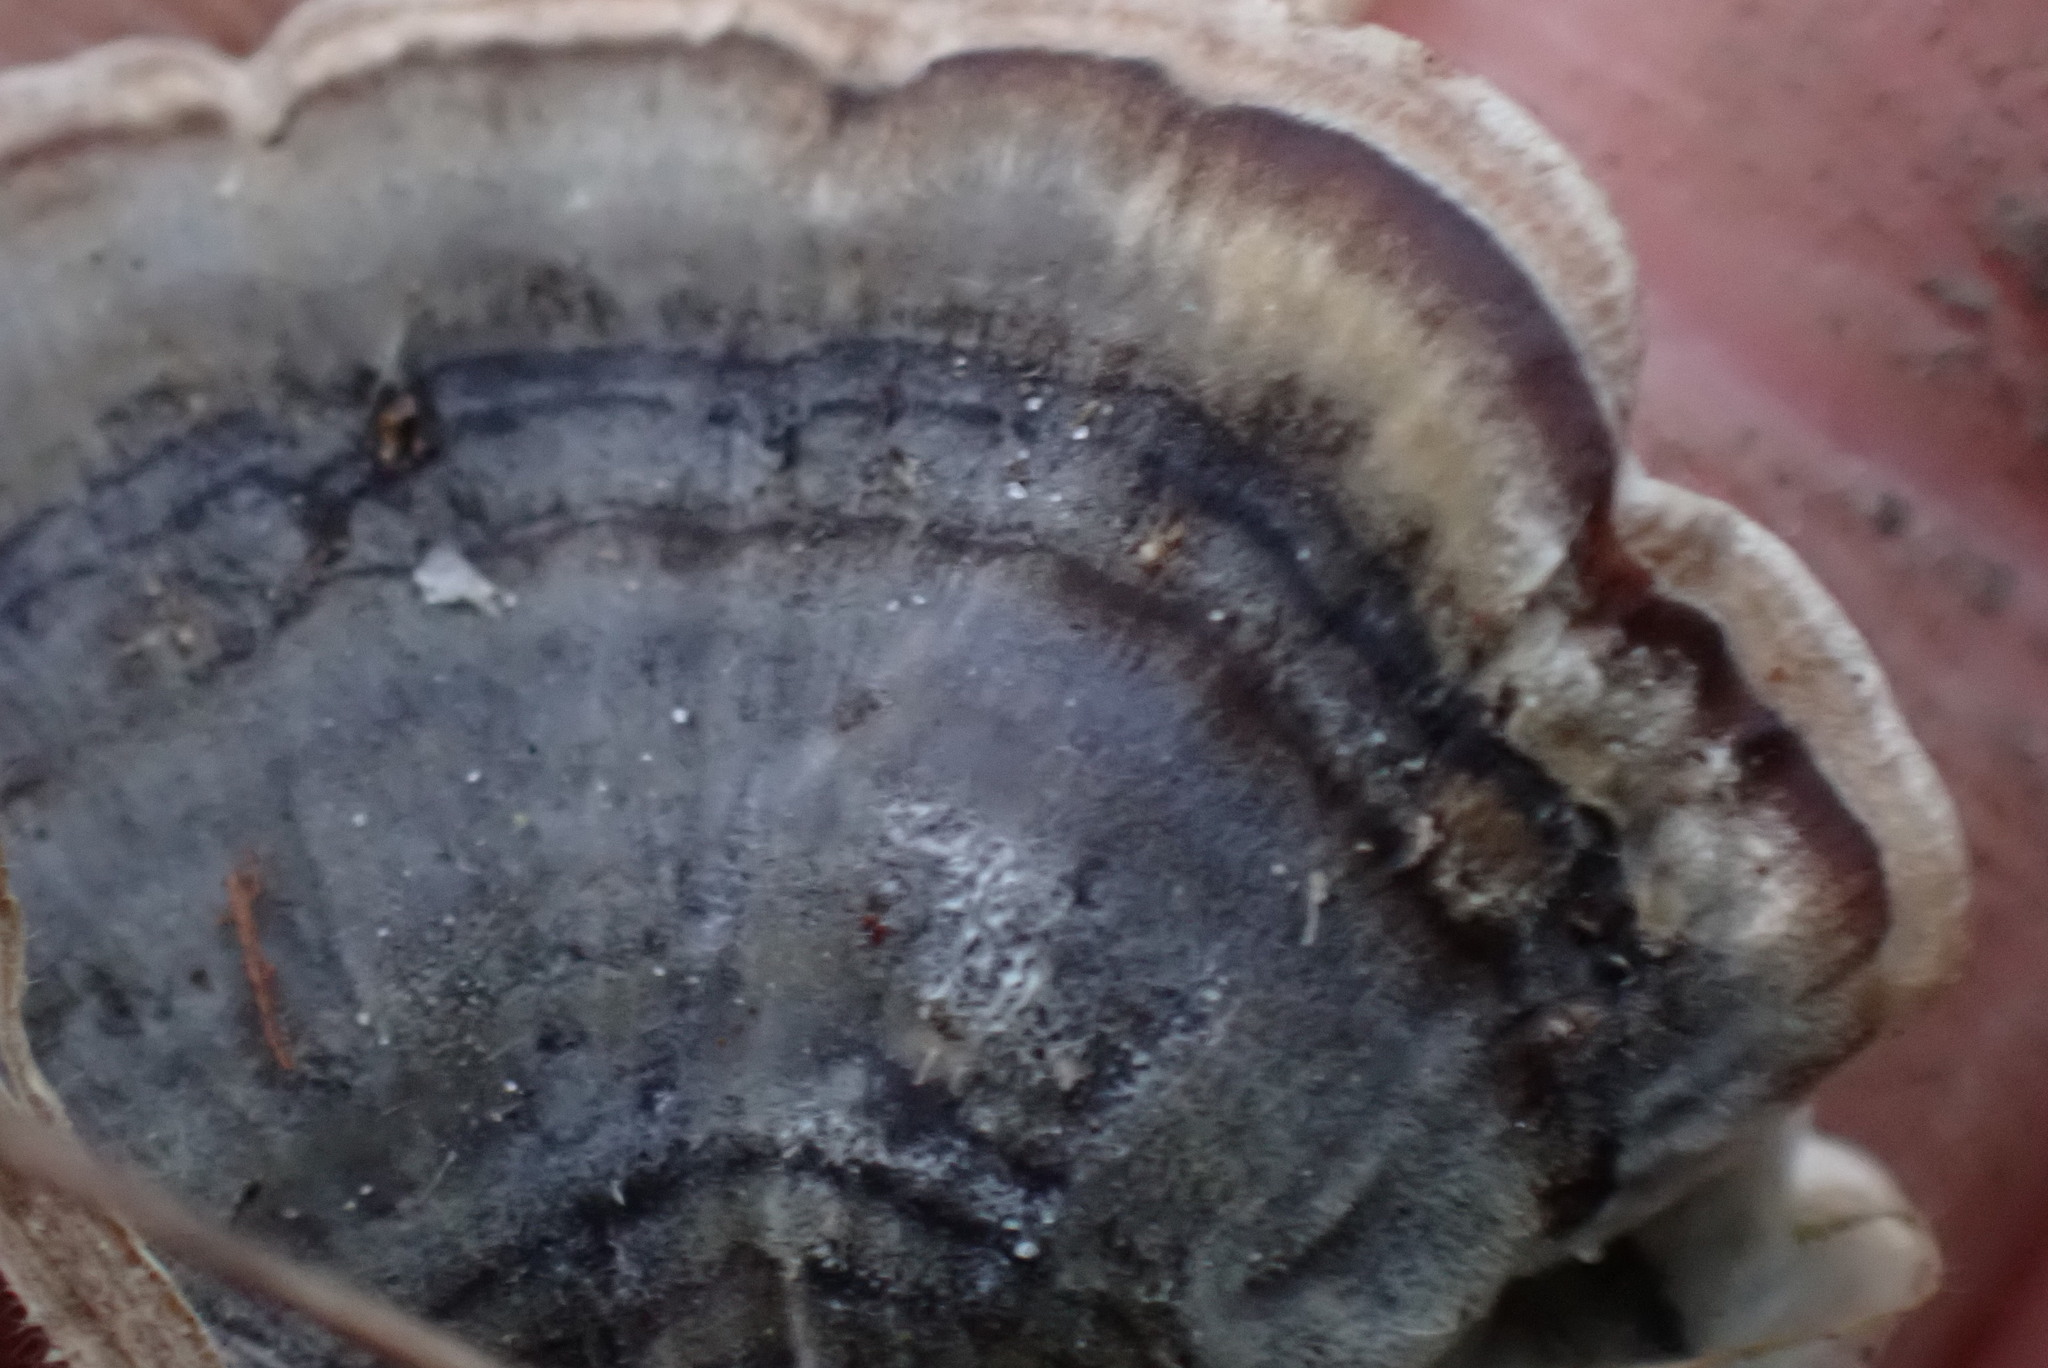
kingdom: Fungi
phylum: Basidiomycota
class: Agaricomycetes
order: Polyporales
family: Polyporaceae
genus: Trametes
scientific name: Trametes versicolor
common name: Turkeytail
